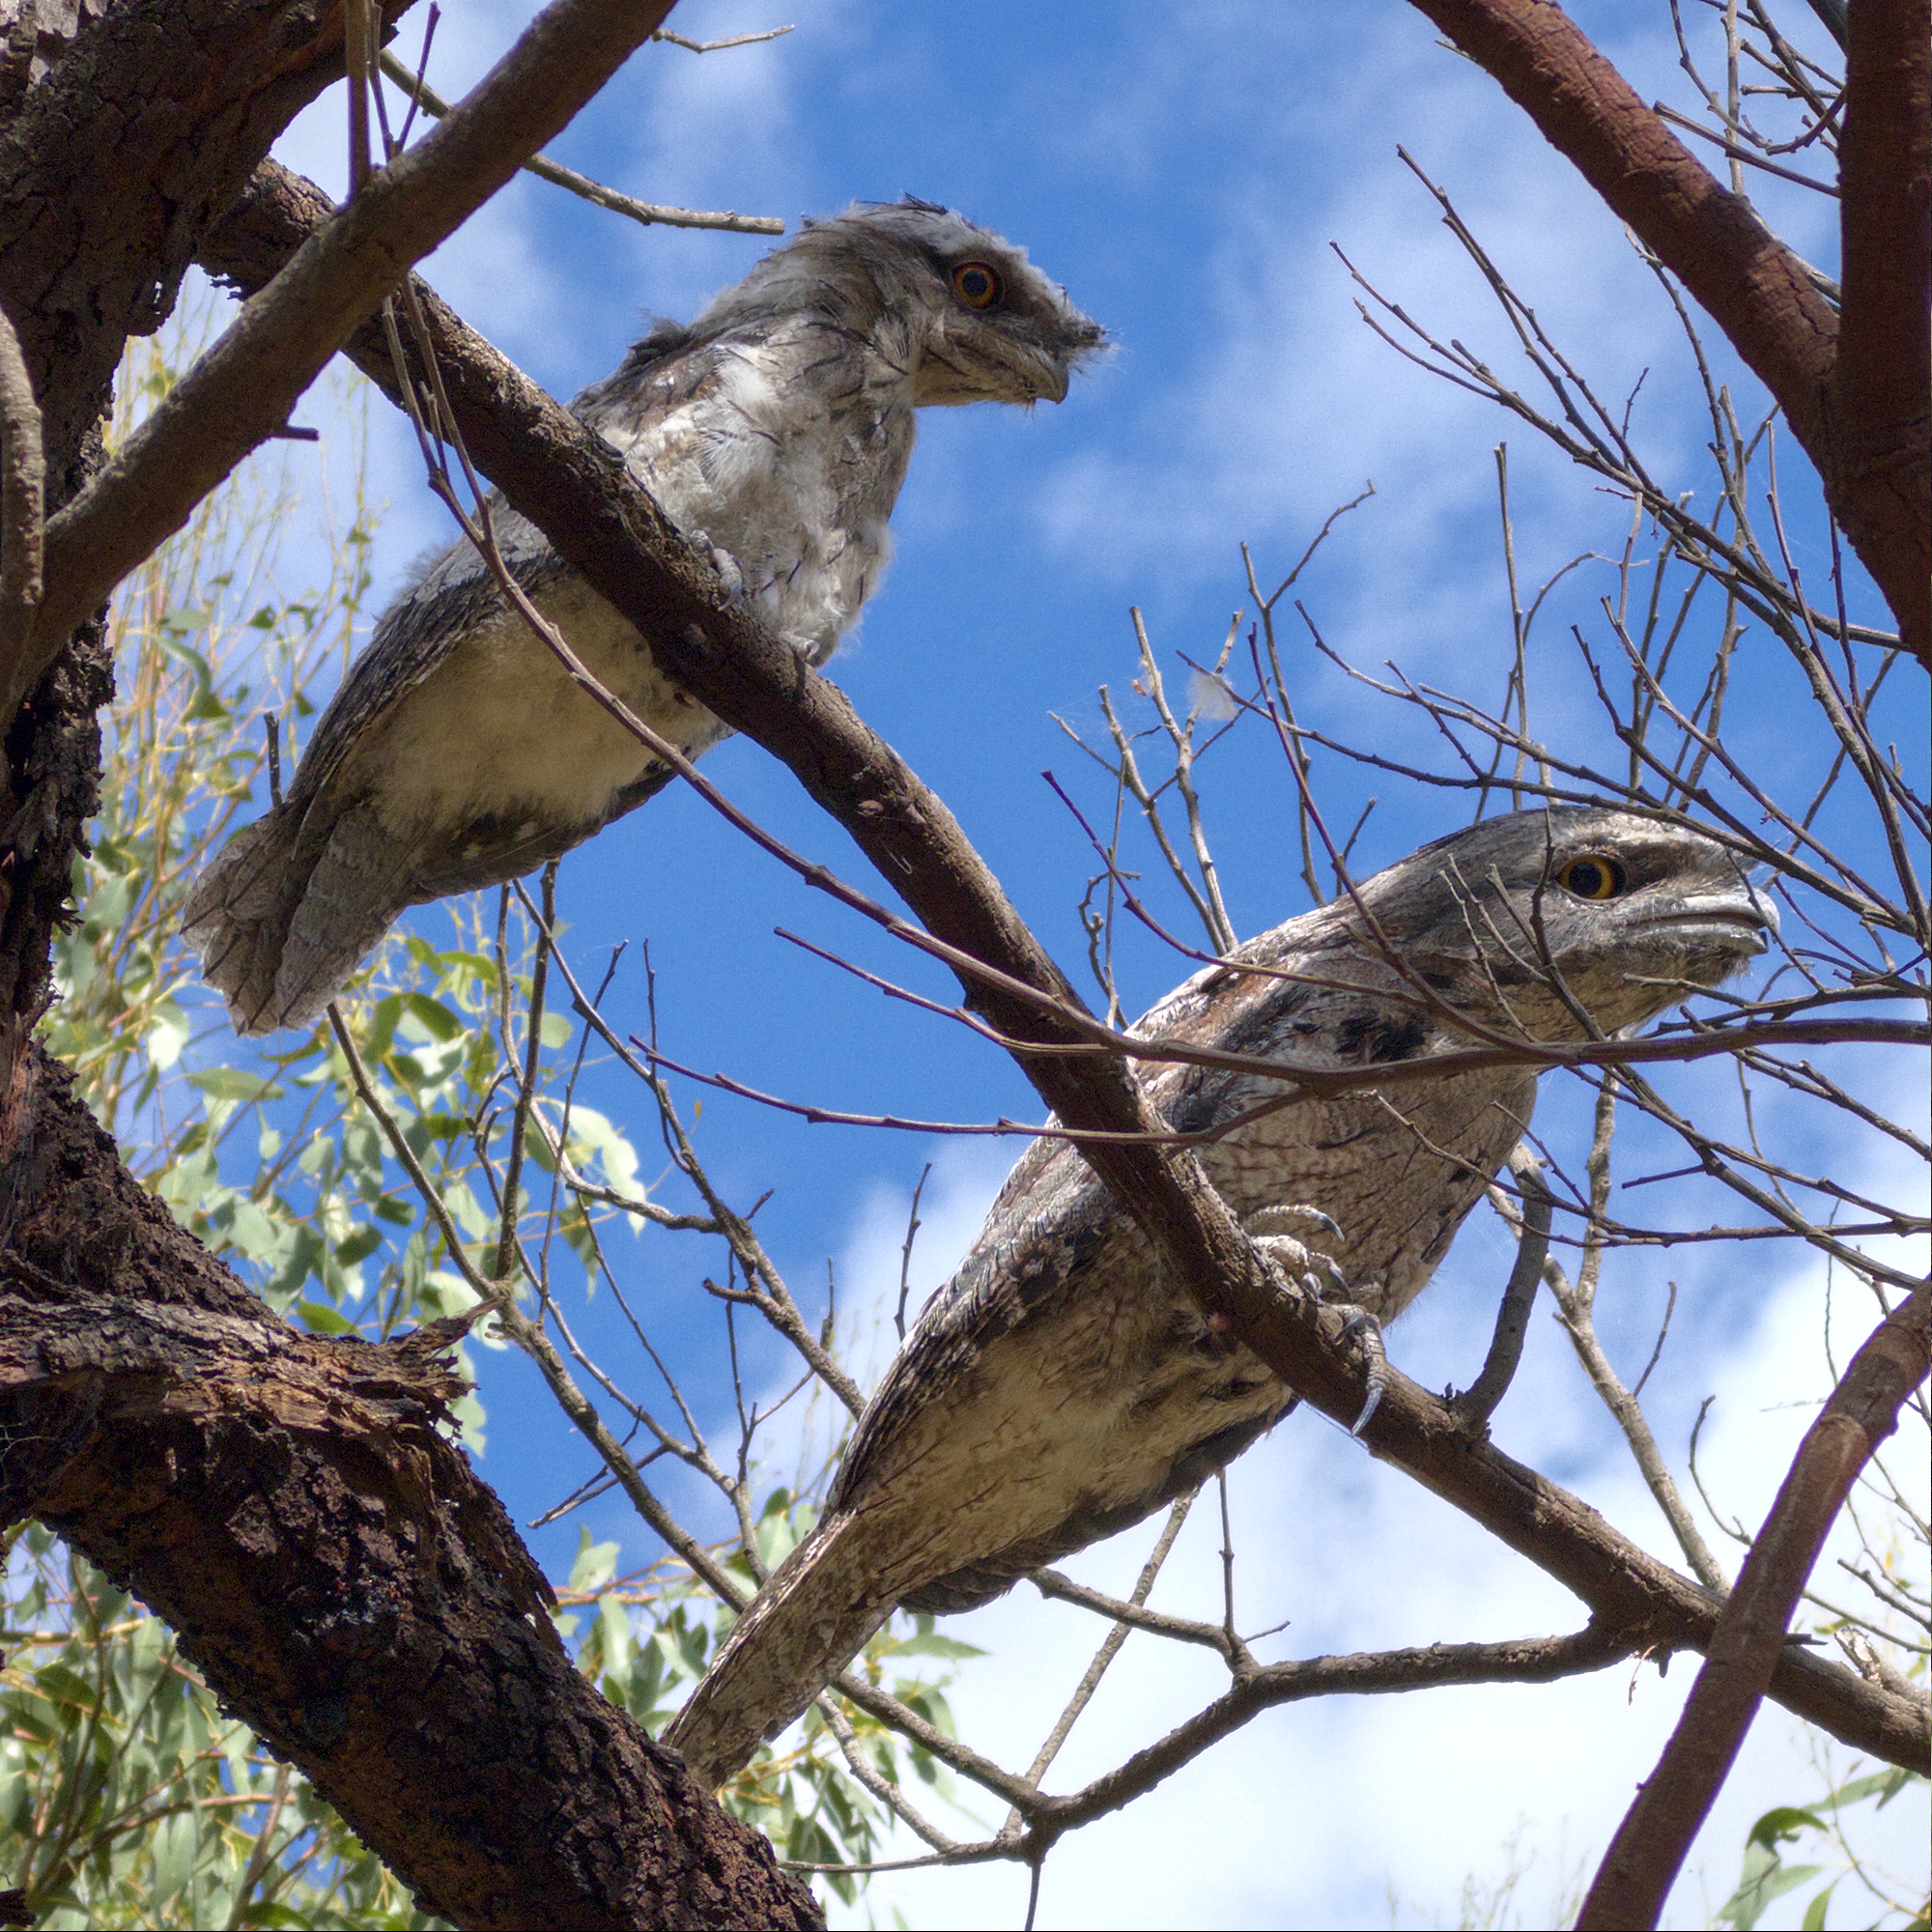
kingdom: Animalia
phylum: Chordata
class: Aves
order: Caprimulgiformes
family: Podargidae
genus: Podargus
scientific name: Podargus strigoides
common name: Tawny frogmouth
